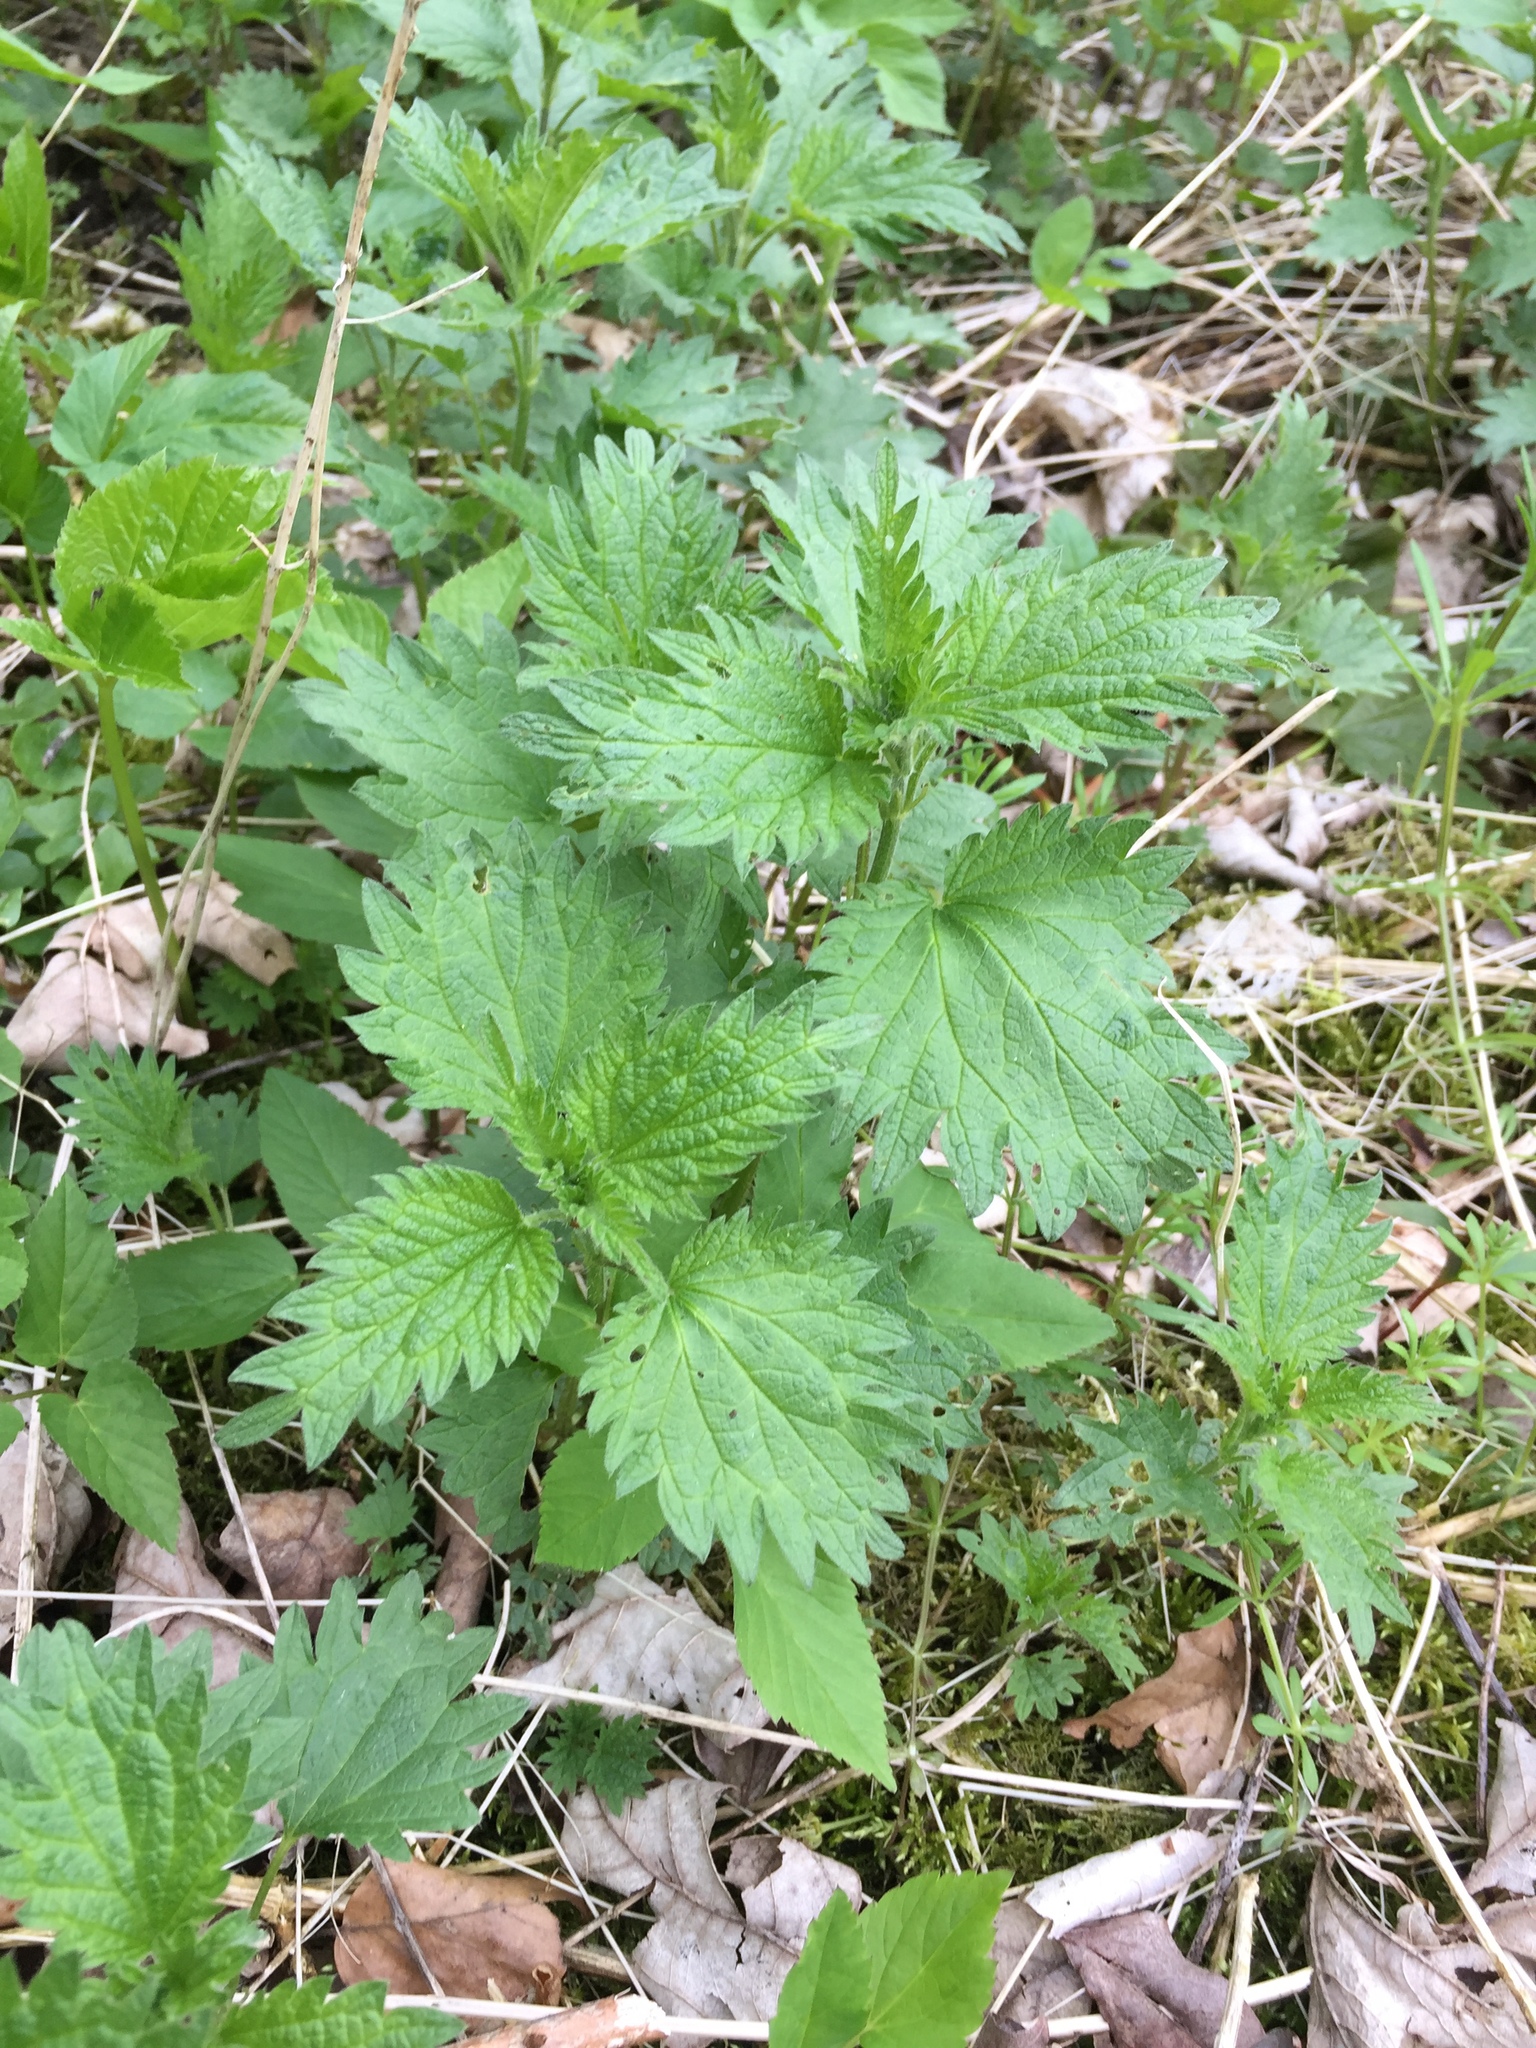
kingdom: Plantae
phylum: Tracheophyta
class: Magnoliopsida
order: Rosales
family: Urticaceae
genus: Urtica
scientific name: Urtica dioica
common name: Common nettle
